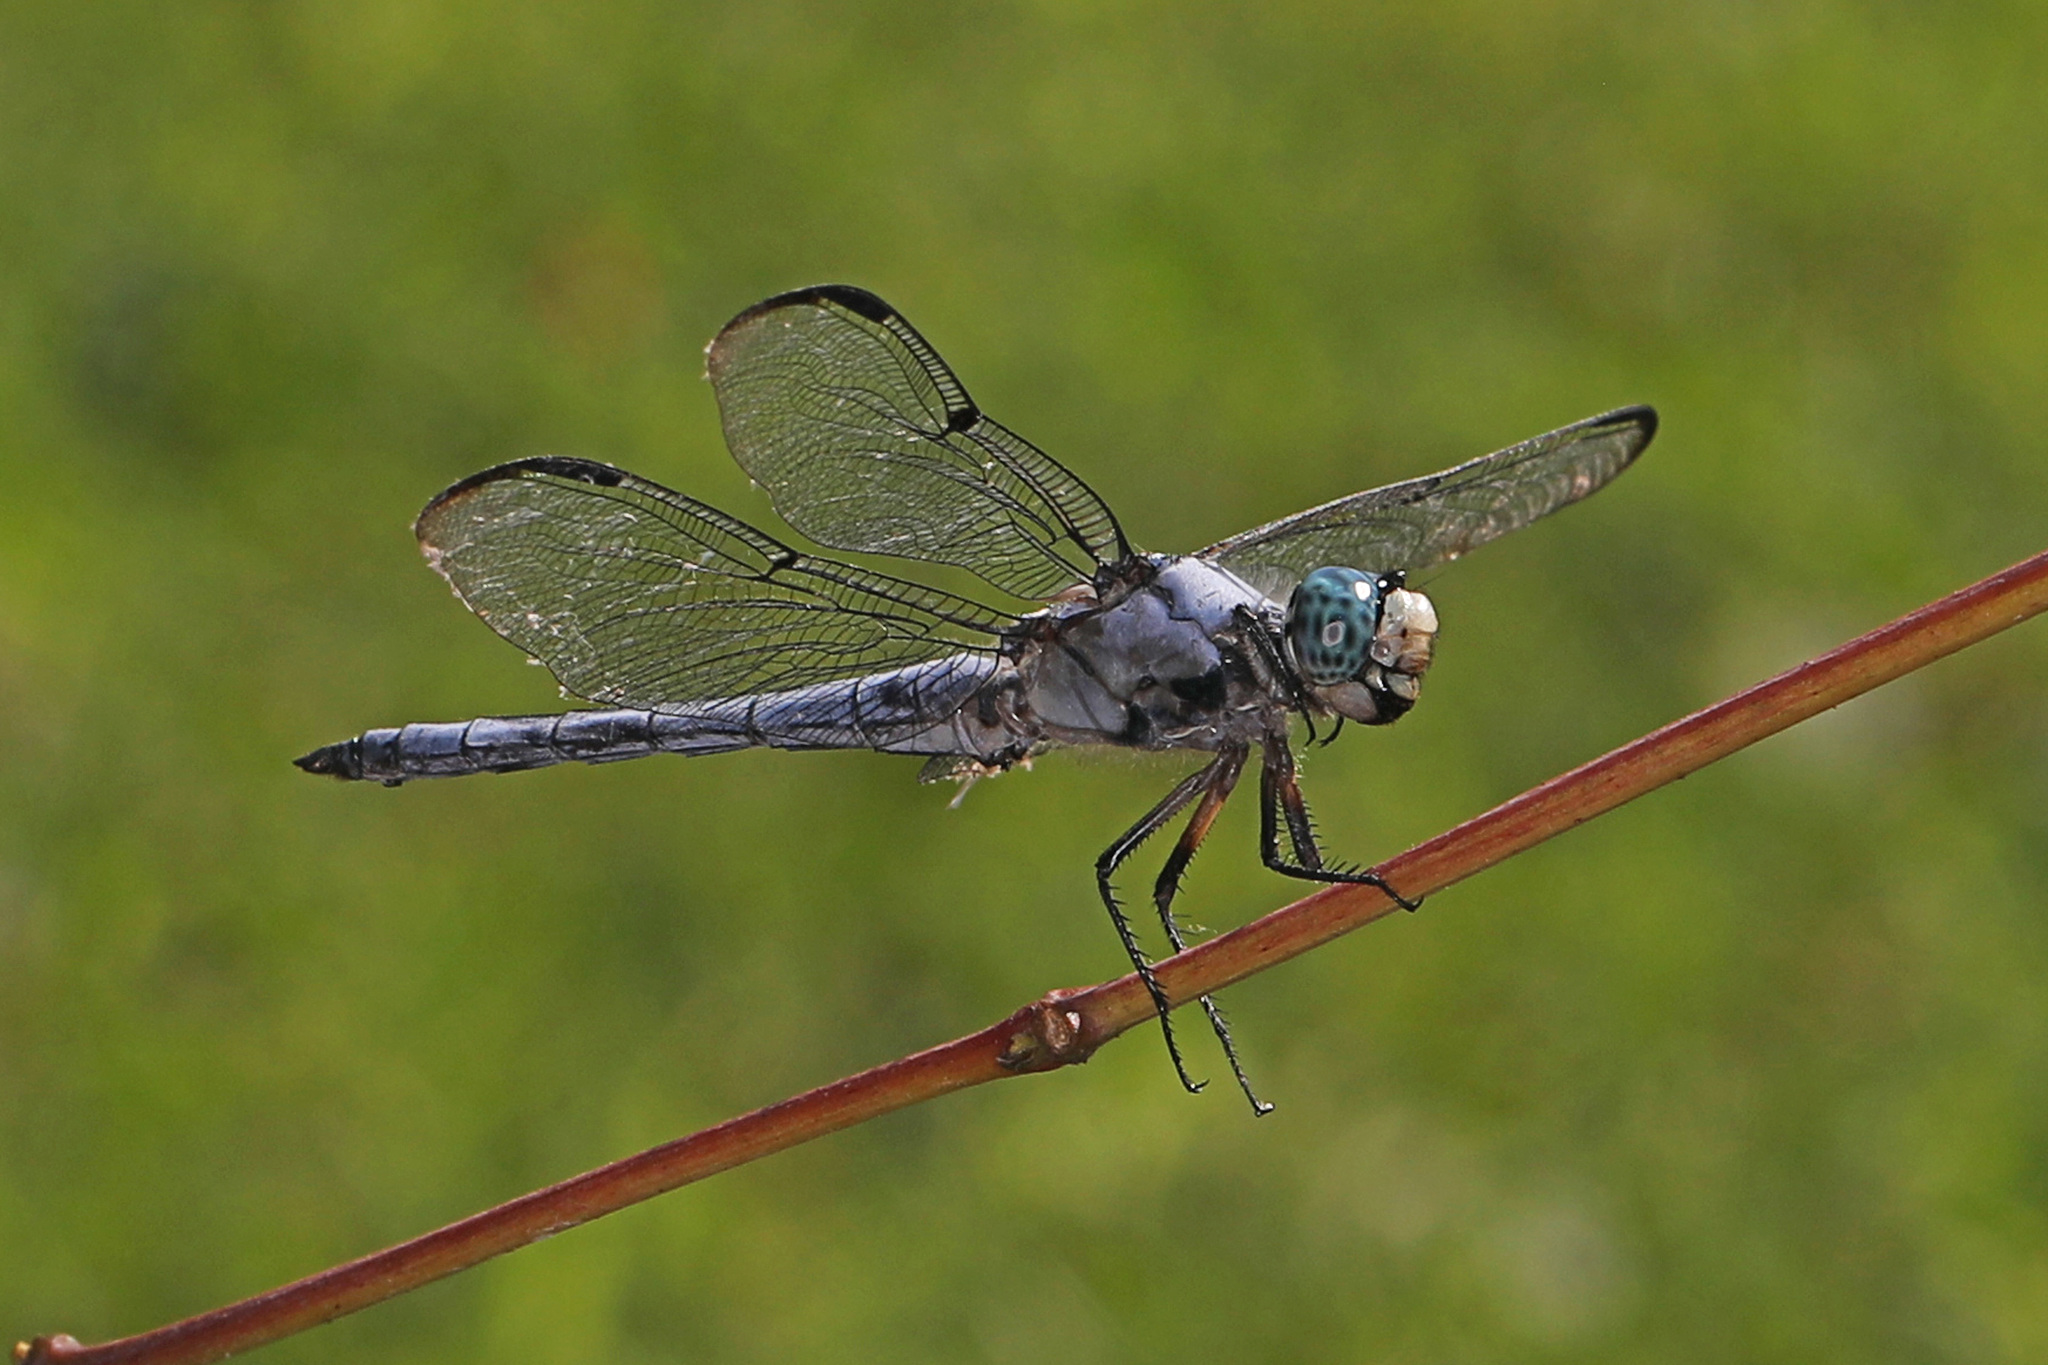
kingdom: Animalia
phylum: Arthropoda
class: Insecta
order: Odonata
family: Libellulidae
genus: Libellula
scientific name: Libellula vibrans
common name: Great blue skimmer
